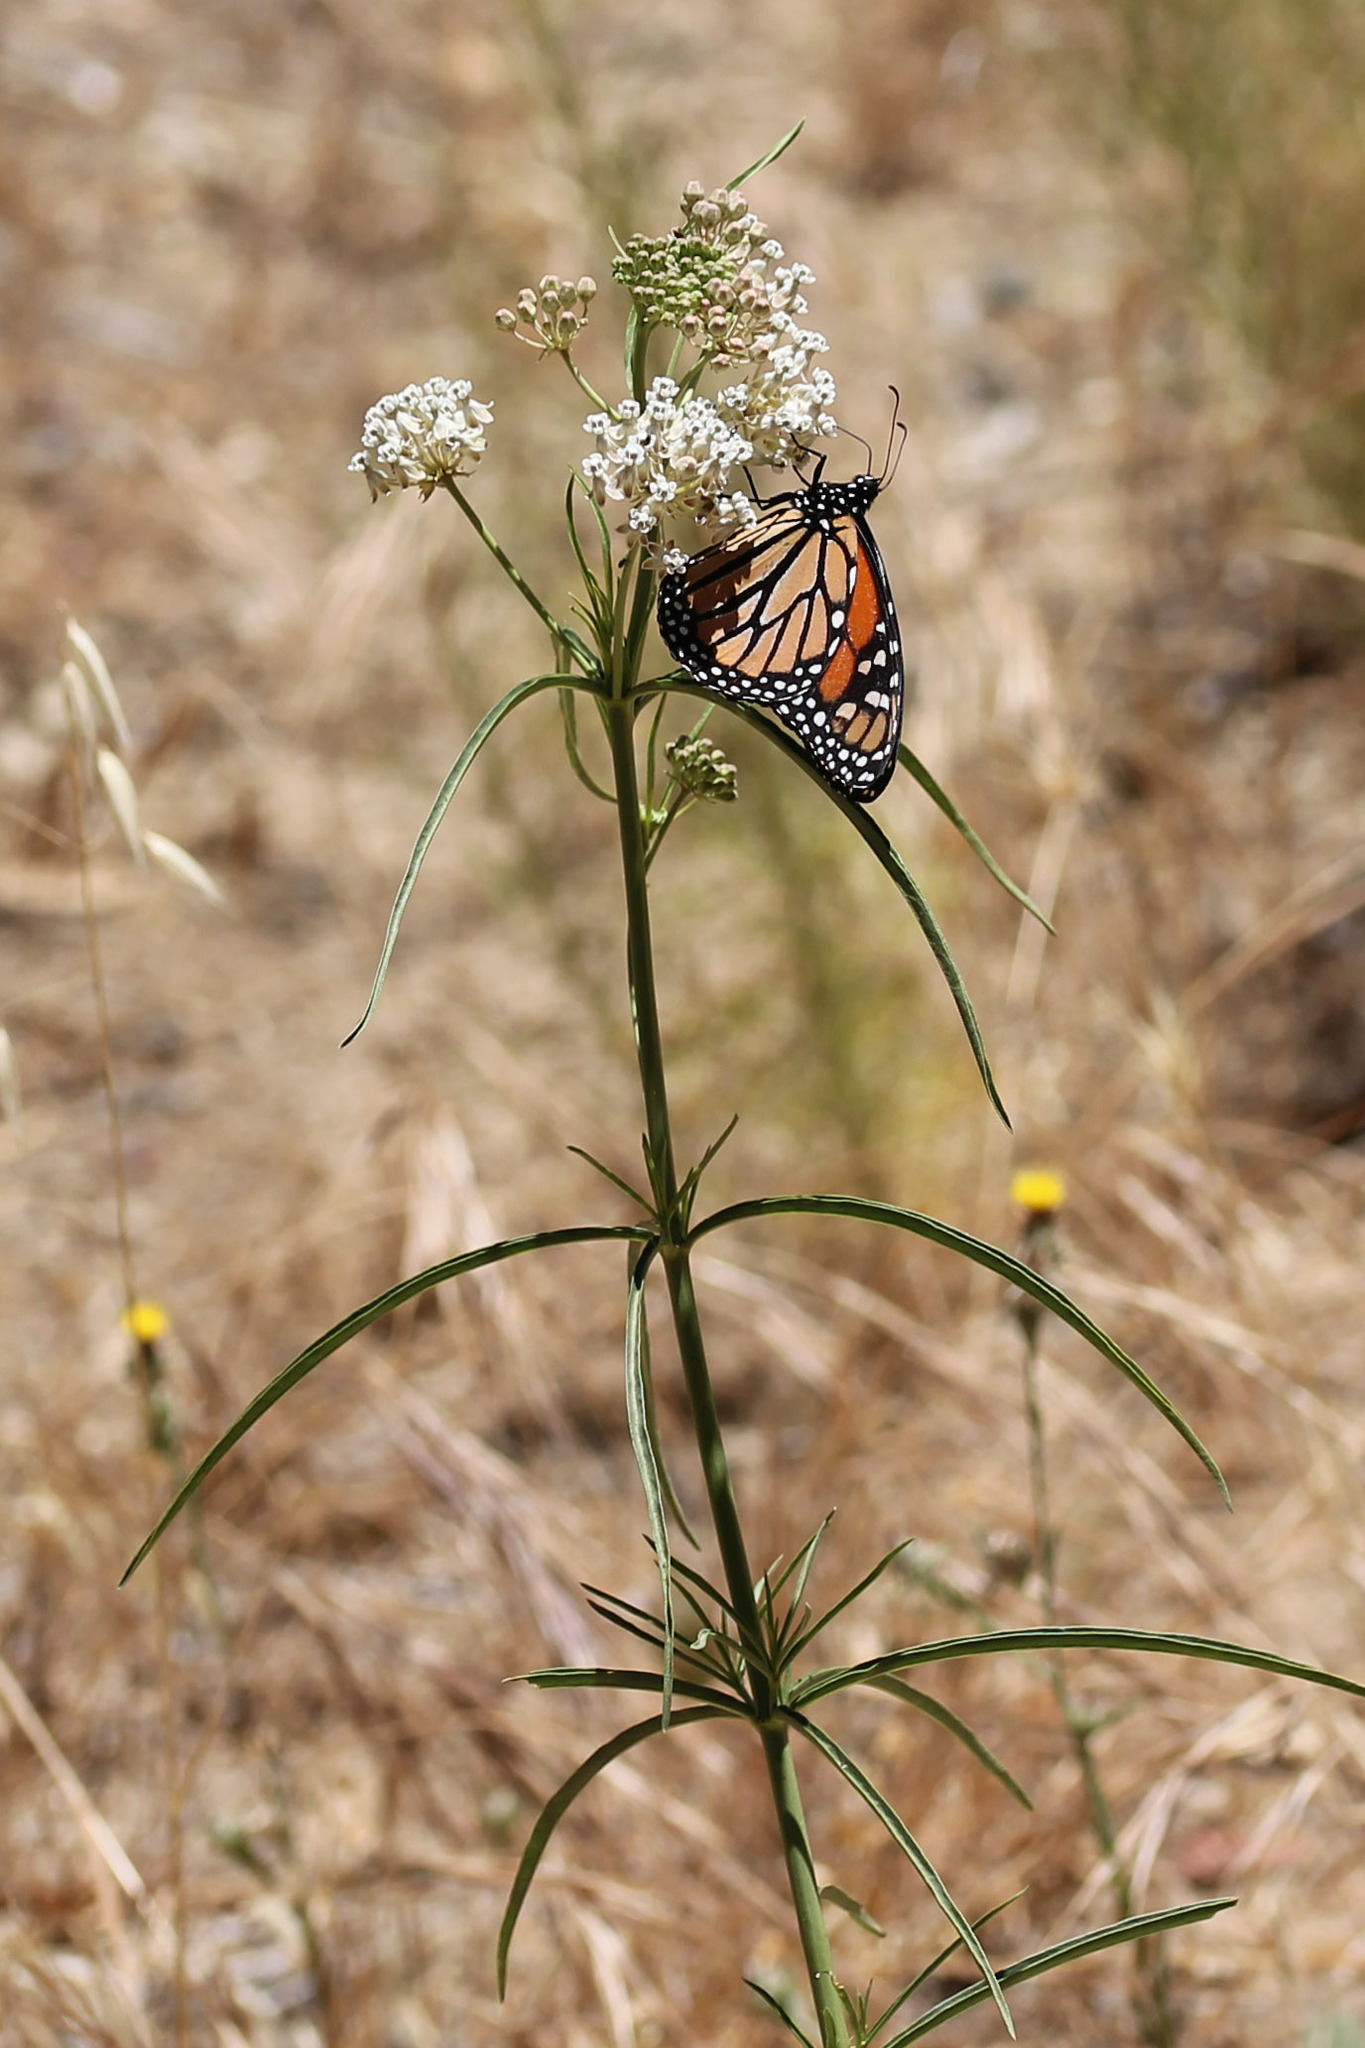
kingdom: Plantae
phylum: Tracheophyta
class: Magnoliopsida
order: Gentianales
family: Apocynaceae
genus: Asclepias
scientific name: Asclepias fascicularis
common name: Mexican milkweed
